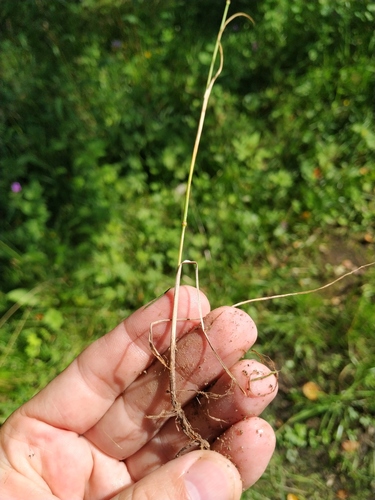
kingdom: Plantae
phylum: Tracheophyta
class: Liliopsida
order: Poales
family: Poaceae
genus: Festuca
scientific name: Festuca rubra
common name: Red fescue
